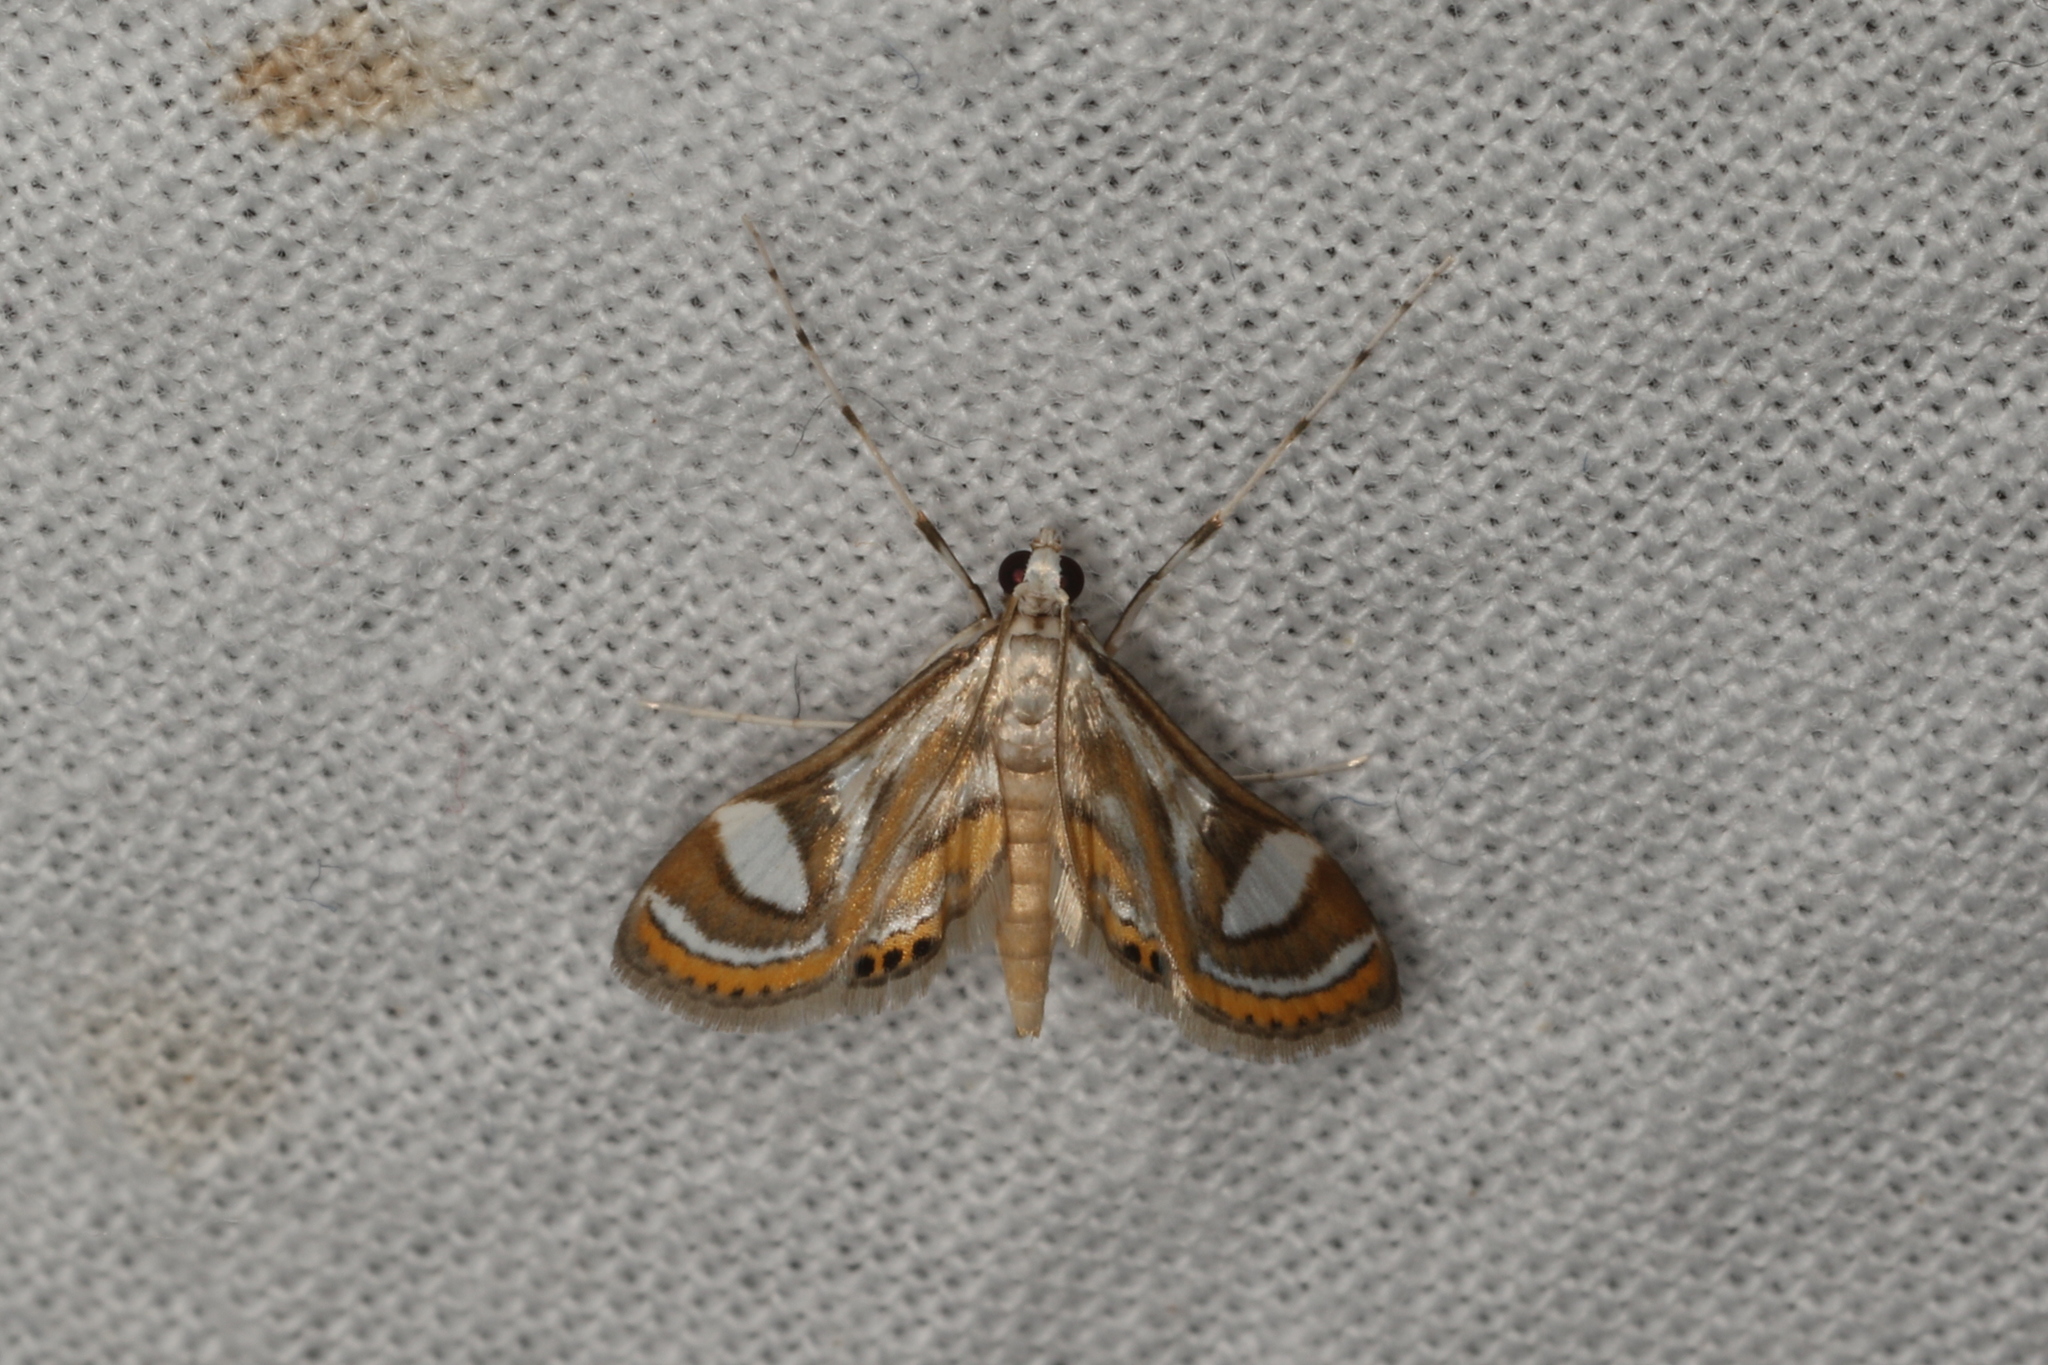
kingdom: Animalia
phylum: Arthropoda
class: Insecta
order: Lepidoptera
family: Crambidae
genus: Strepsinoma
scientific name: Strepsinoma croesusalis
